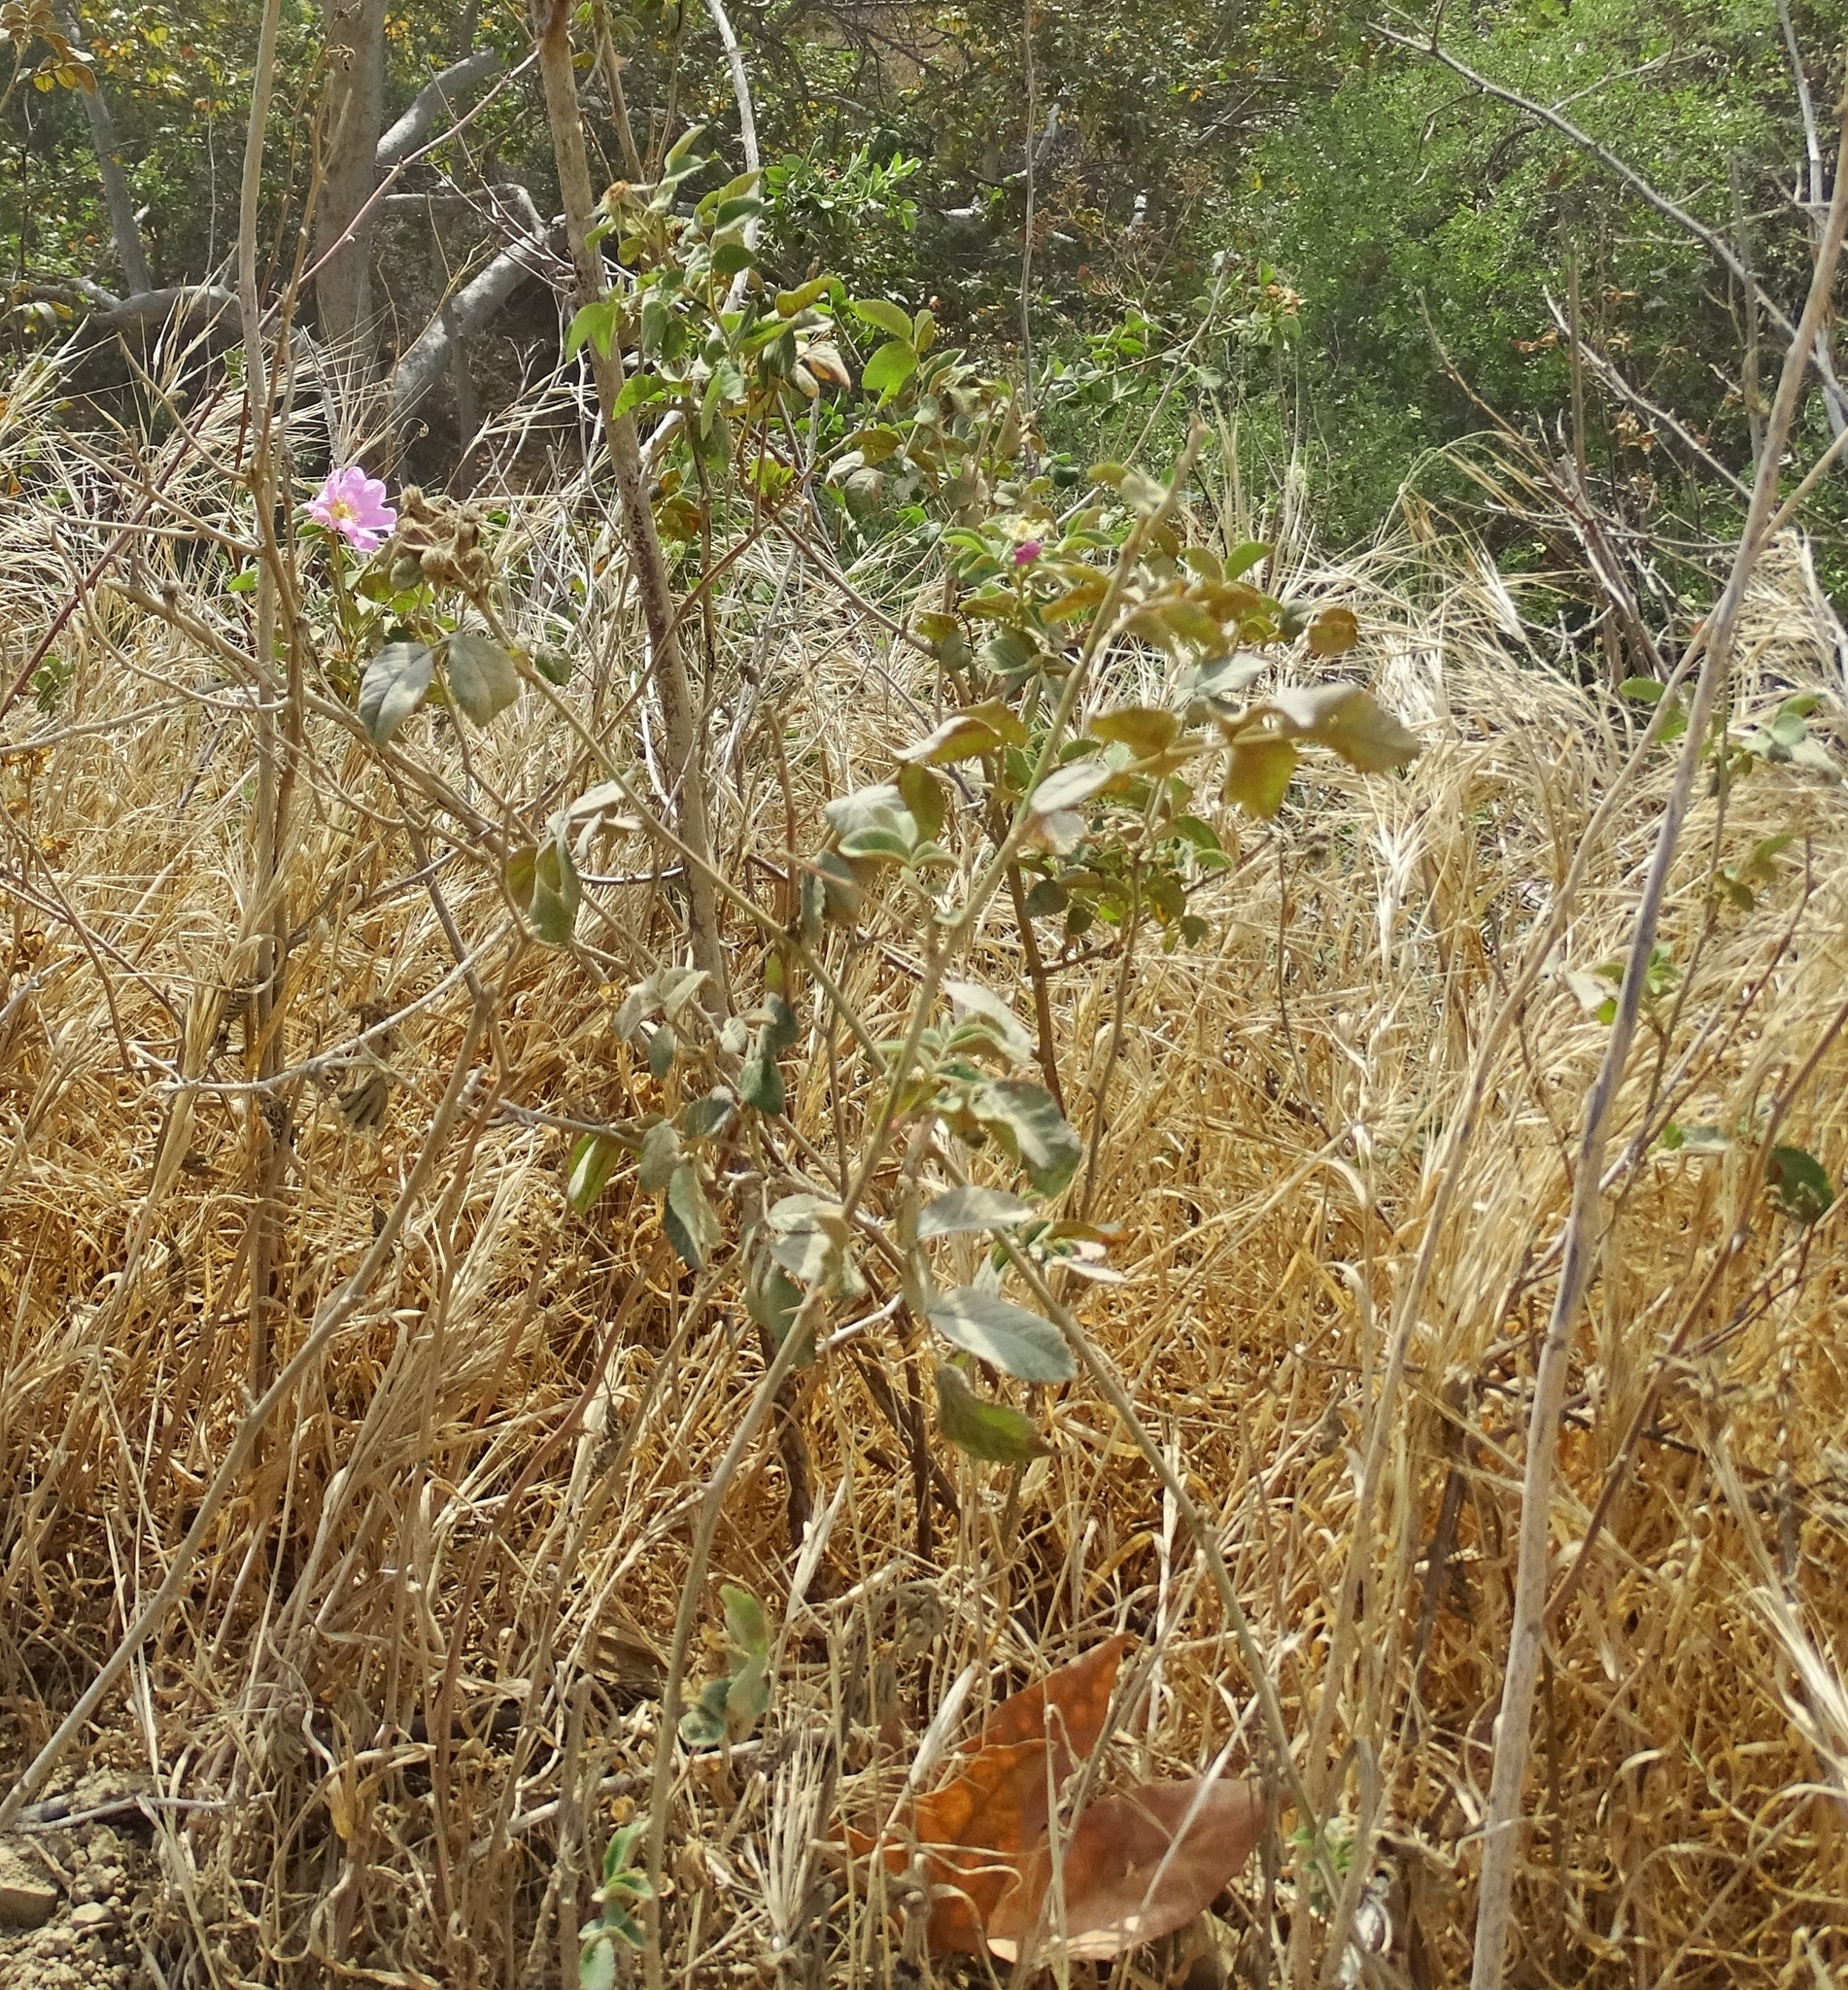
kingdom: Plantae
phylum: Tracheophyta
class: Magnoliopsida
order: Rosales
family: Rosaceae
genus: Rosa
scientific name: Rosa californica
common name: California rose
